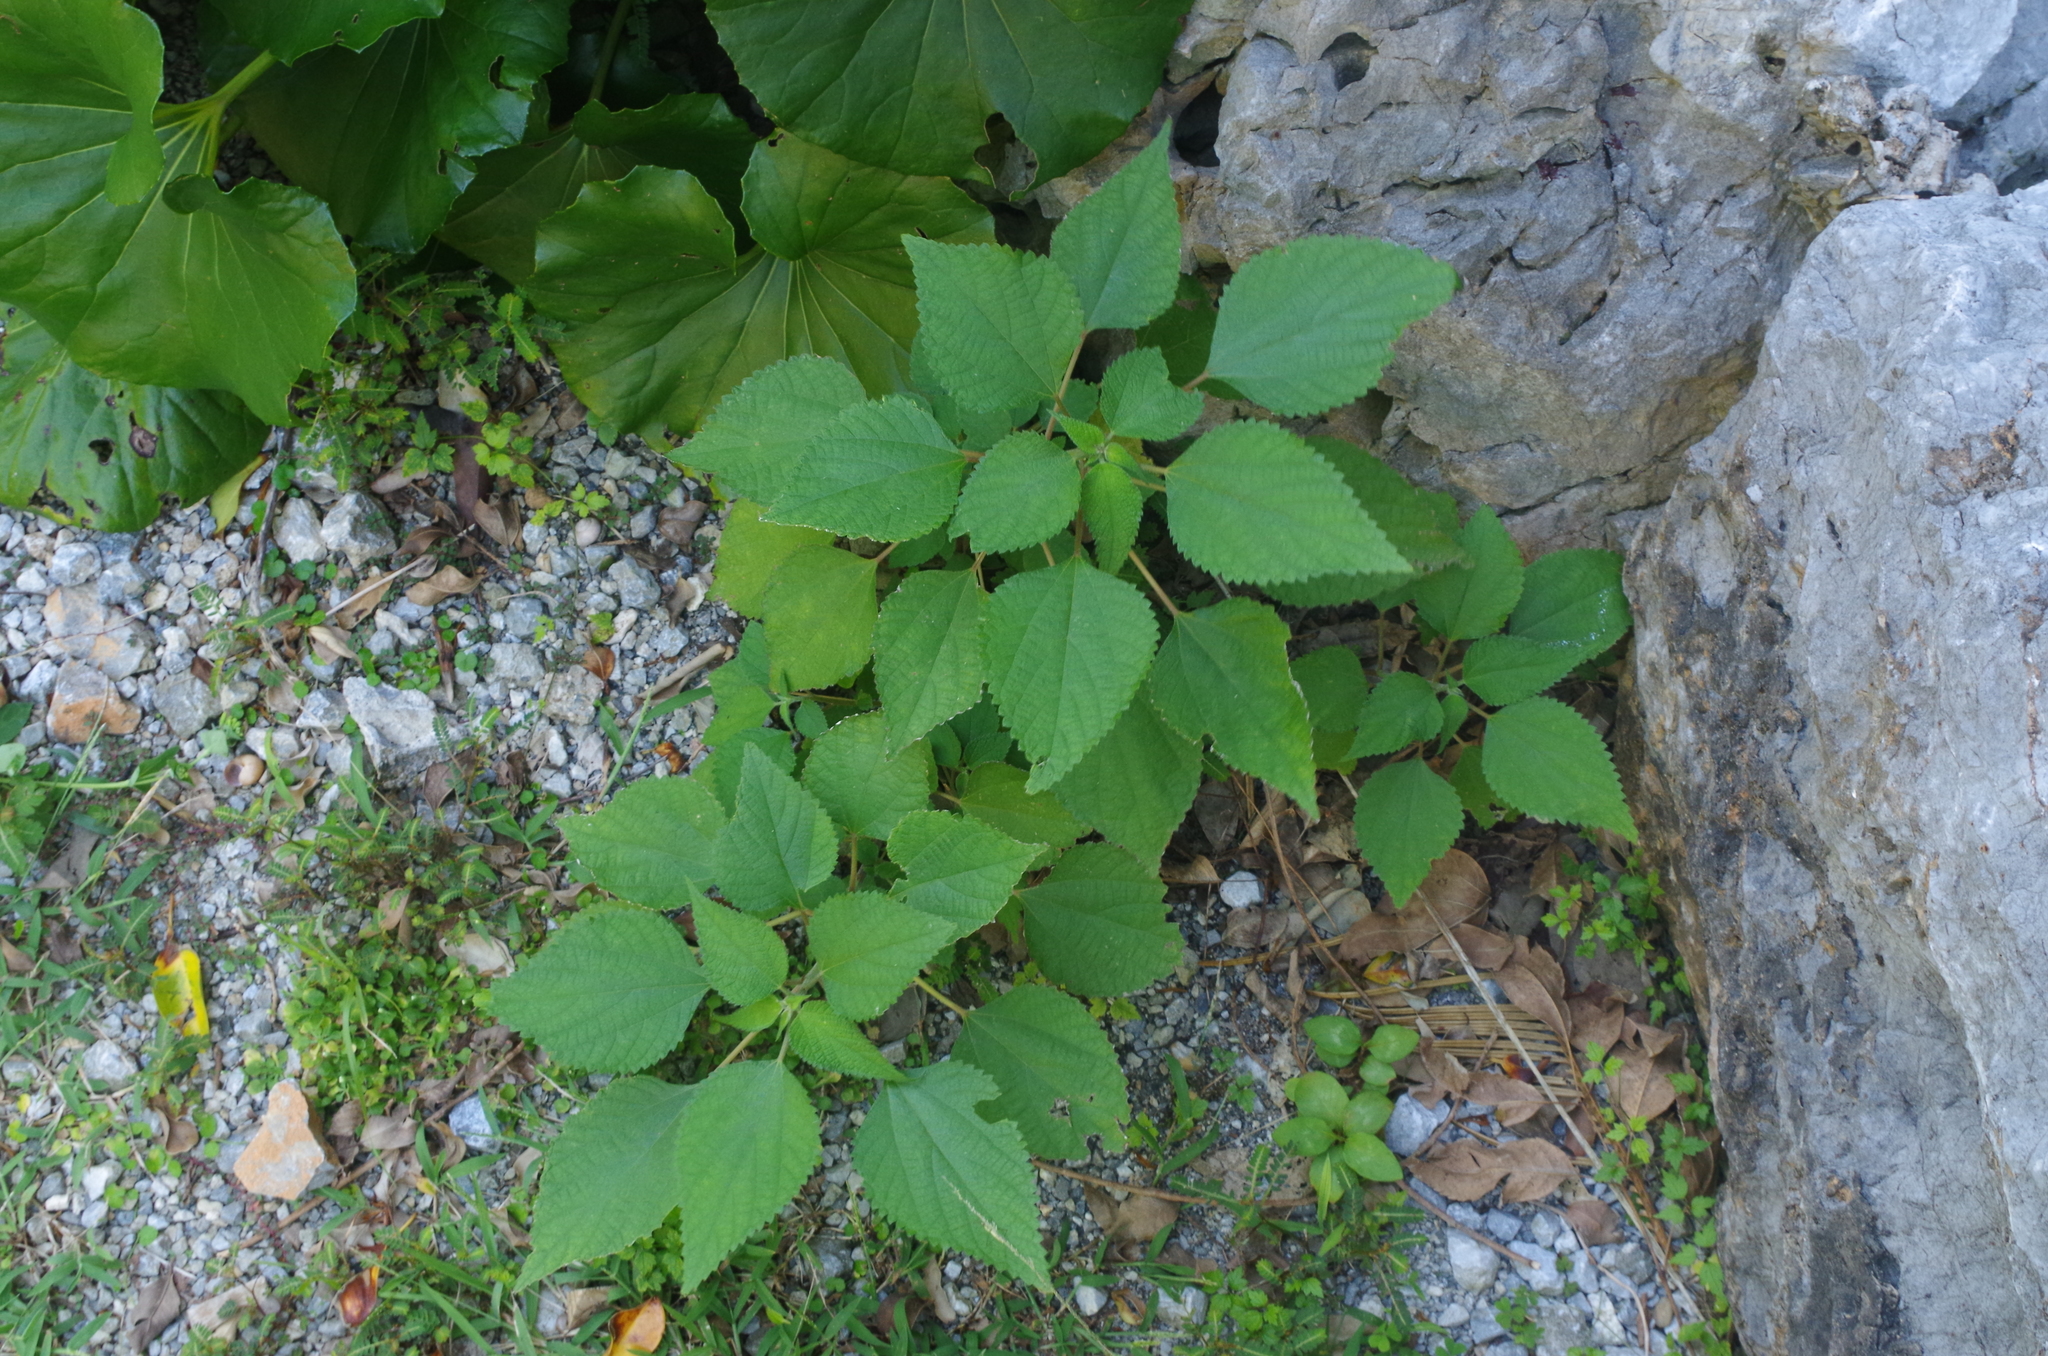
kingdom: Plantae
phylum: Tracheophyta
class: Magnoliopsida
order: Rosales
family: Urticaceae
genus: Boehmeria
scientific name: Boehmeria nivea
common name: Ramie chinese grass
